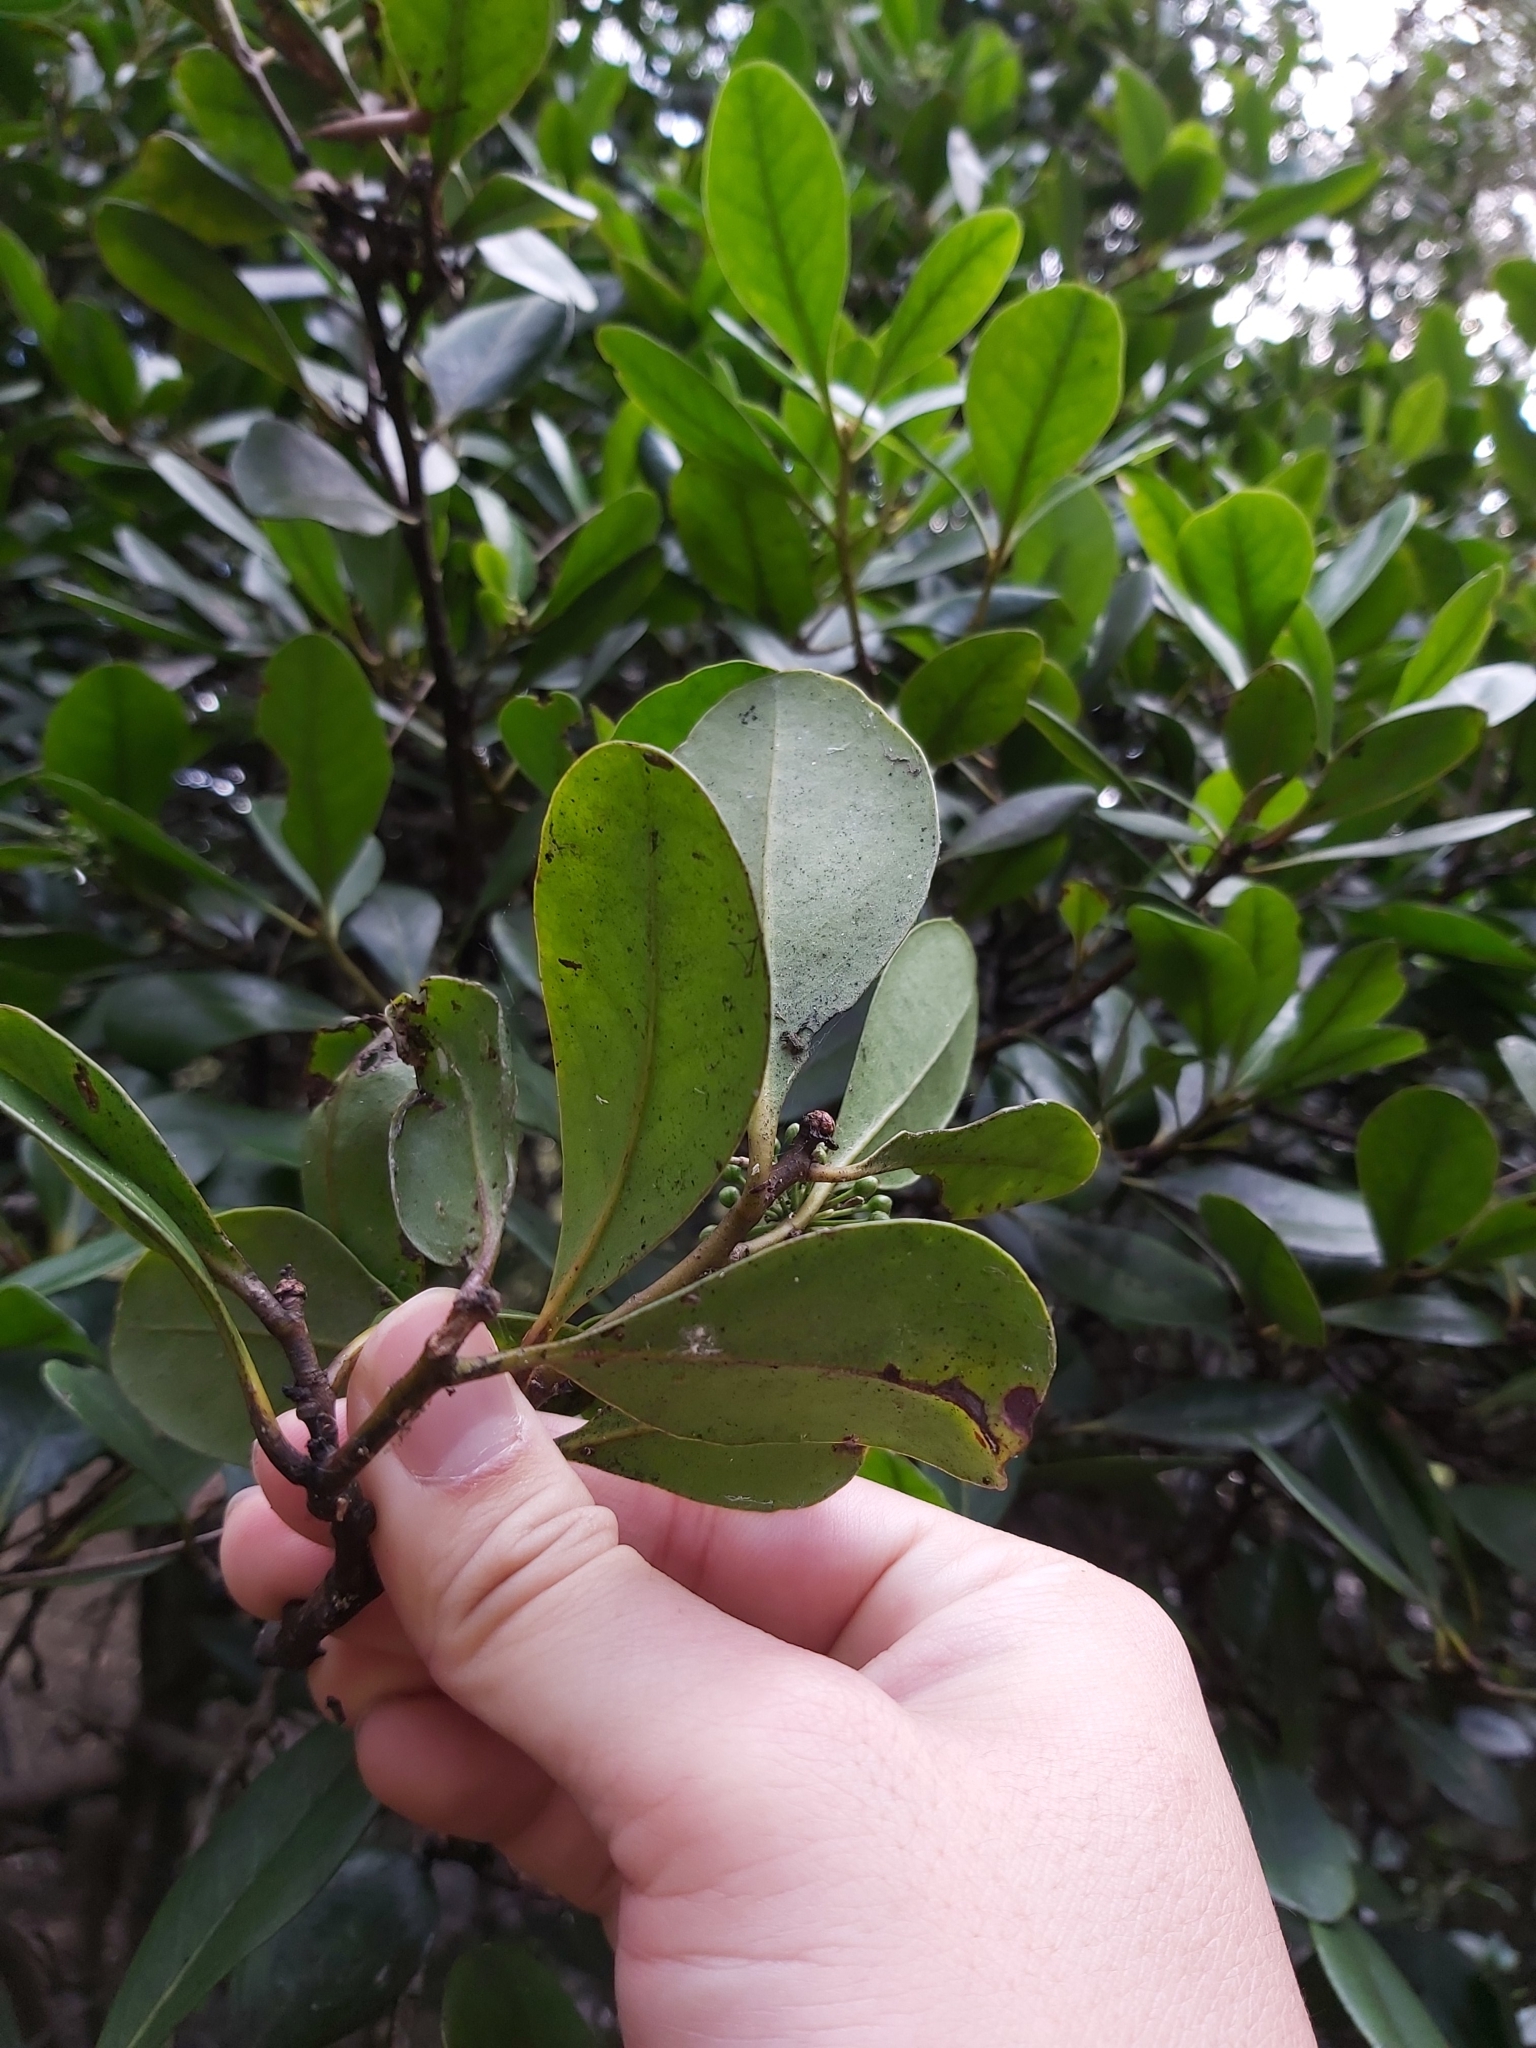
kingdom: Plantae
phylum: Tracheophyta
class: Magnoliopsida
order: Ericales
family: Primulaceae
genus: Aegiceras
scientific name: Aegiceras corniculatum
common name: River mangrove
